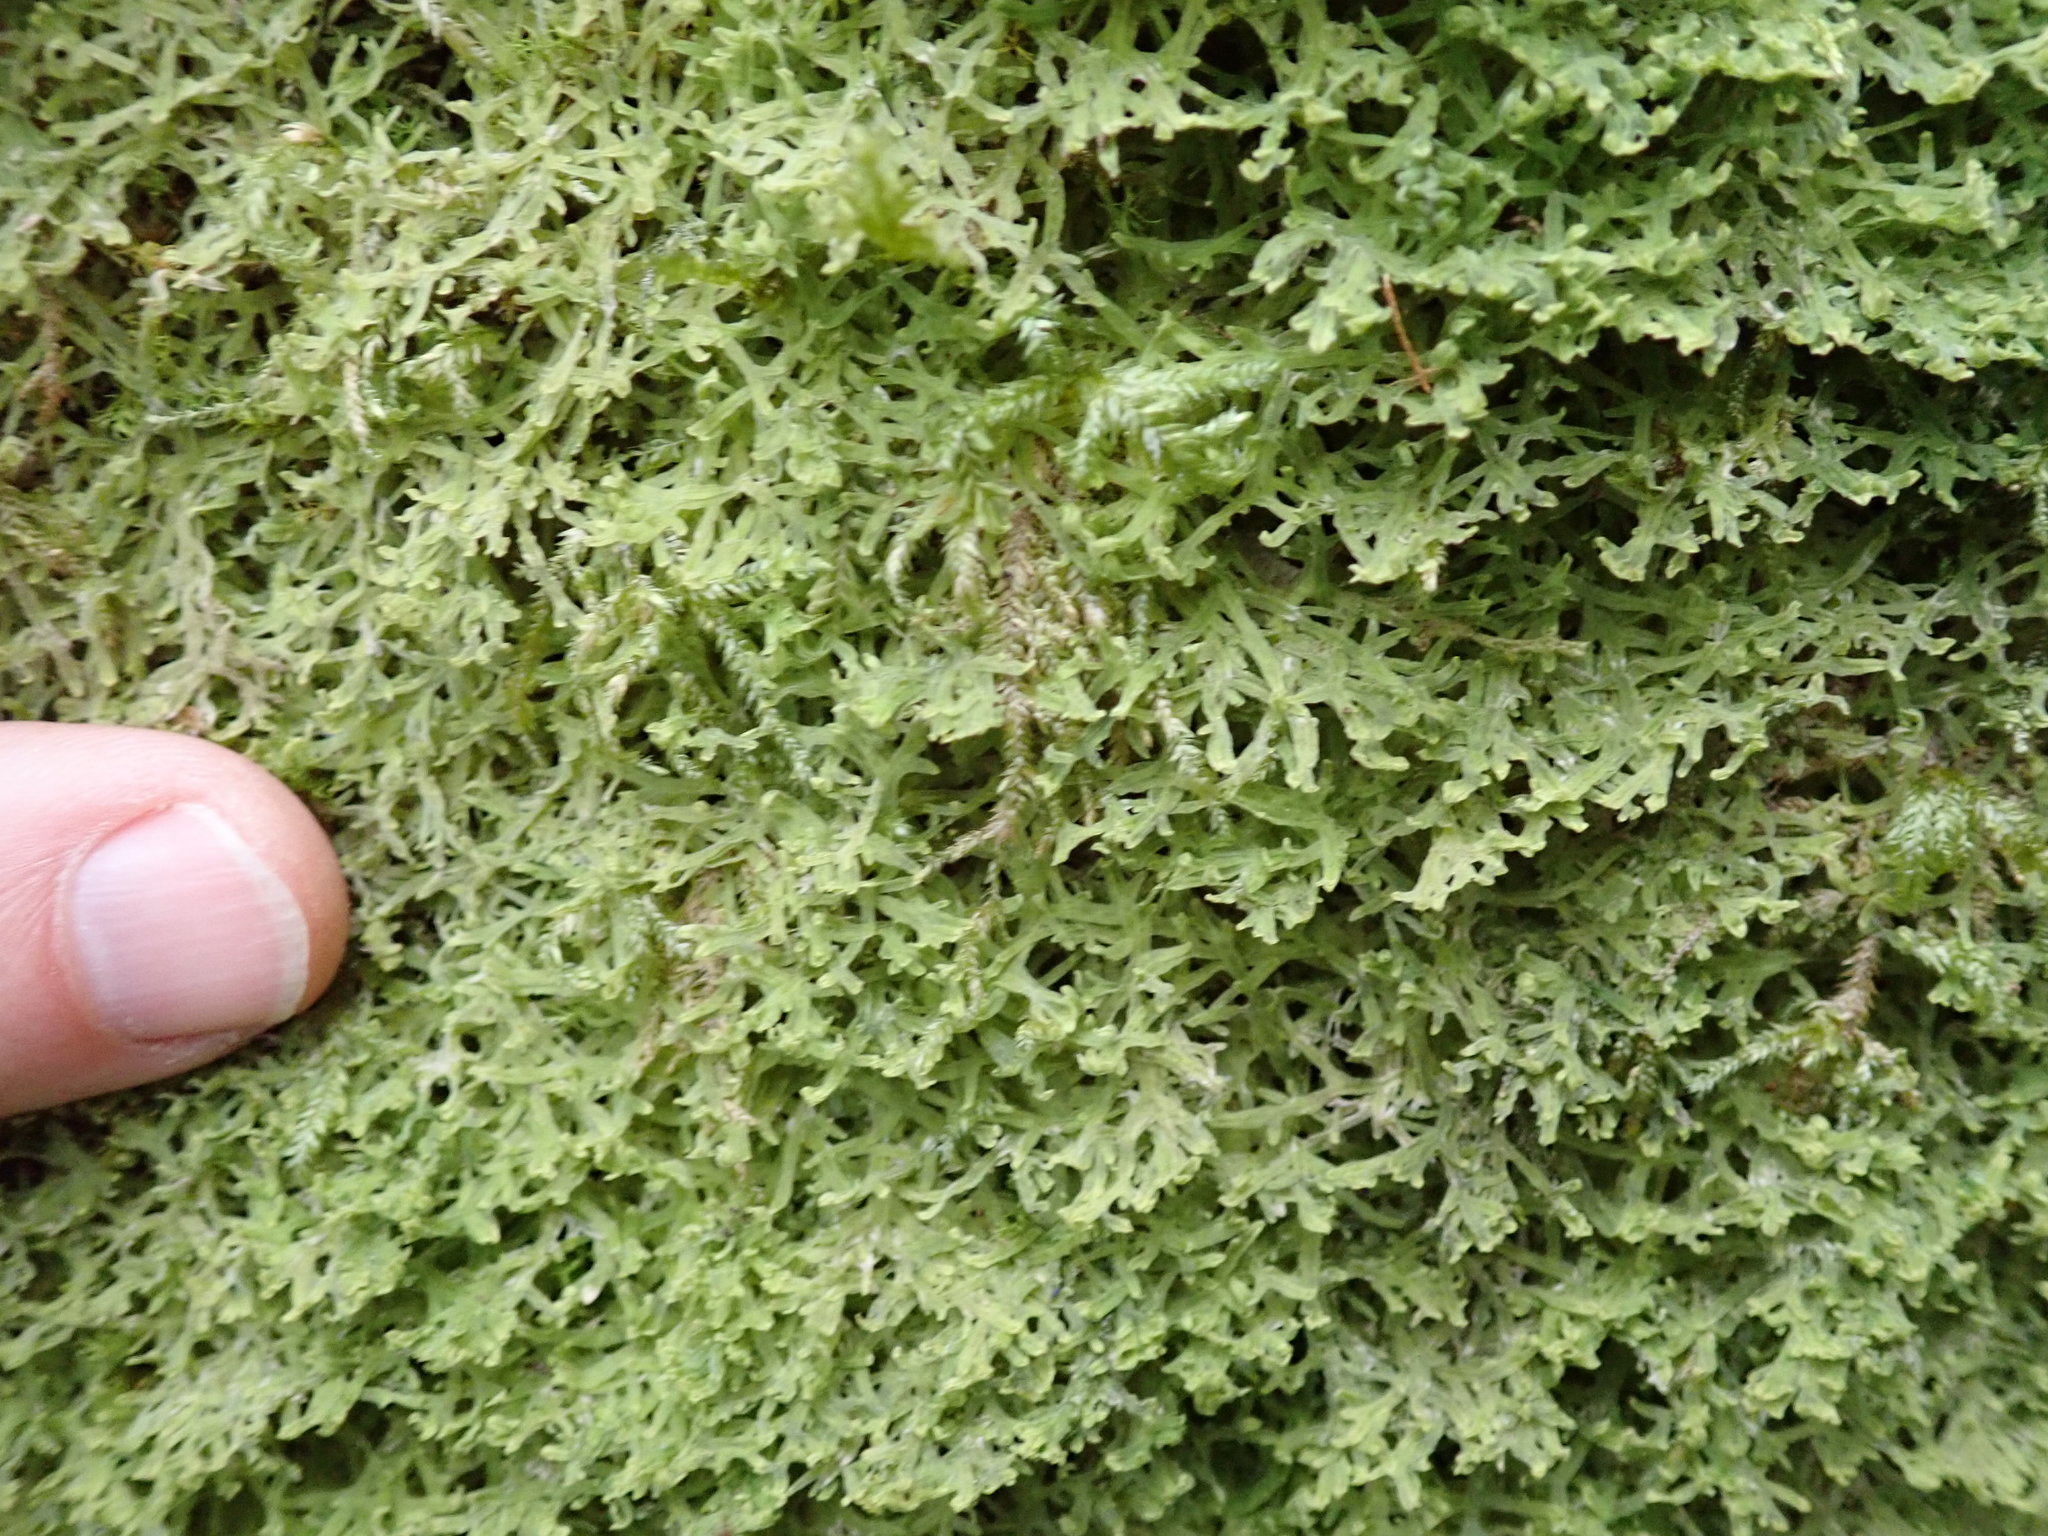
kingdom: Plantae
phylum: Marchantiophyta
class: Jungermanniopsida
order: Metzgeriales
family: Metzgeriaceae
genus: Metzgeria
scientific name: Metzgeria pubescens
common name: Downy veilwort
